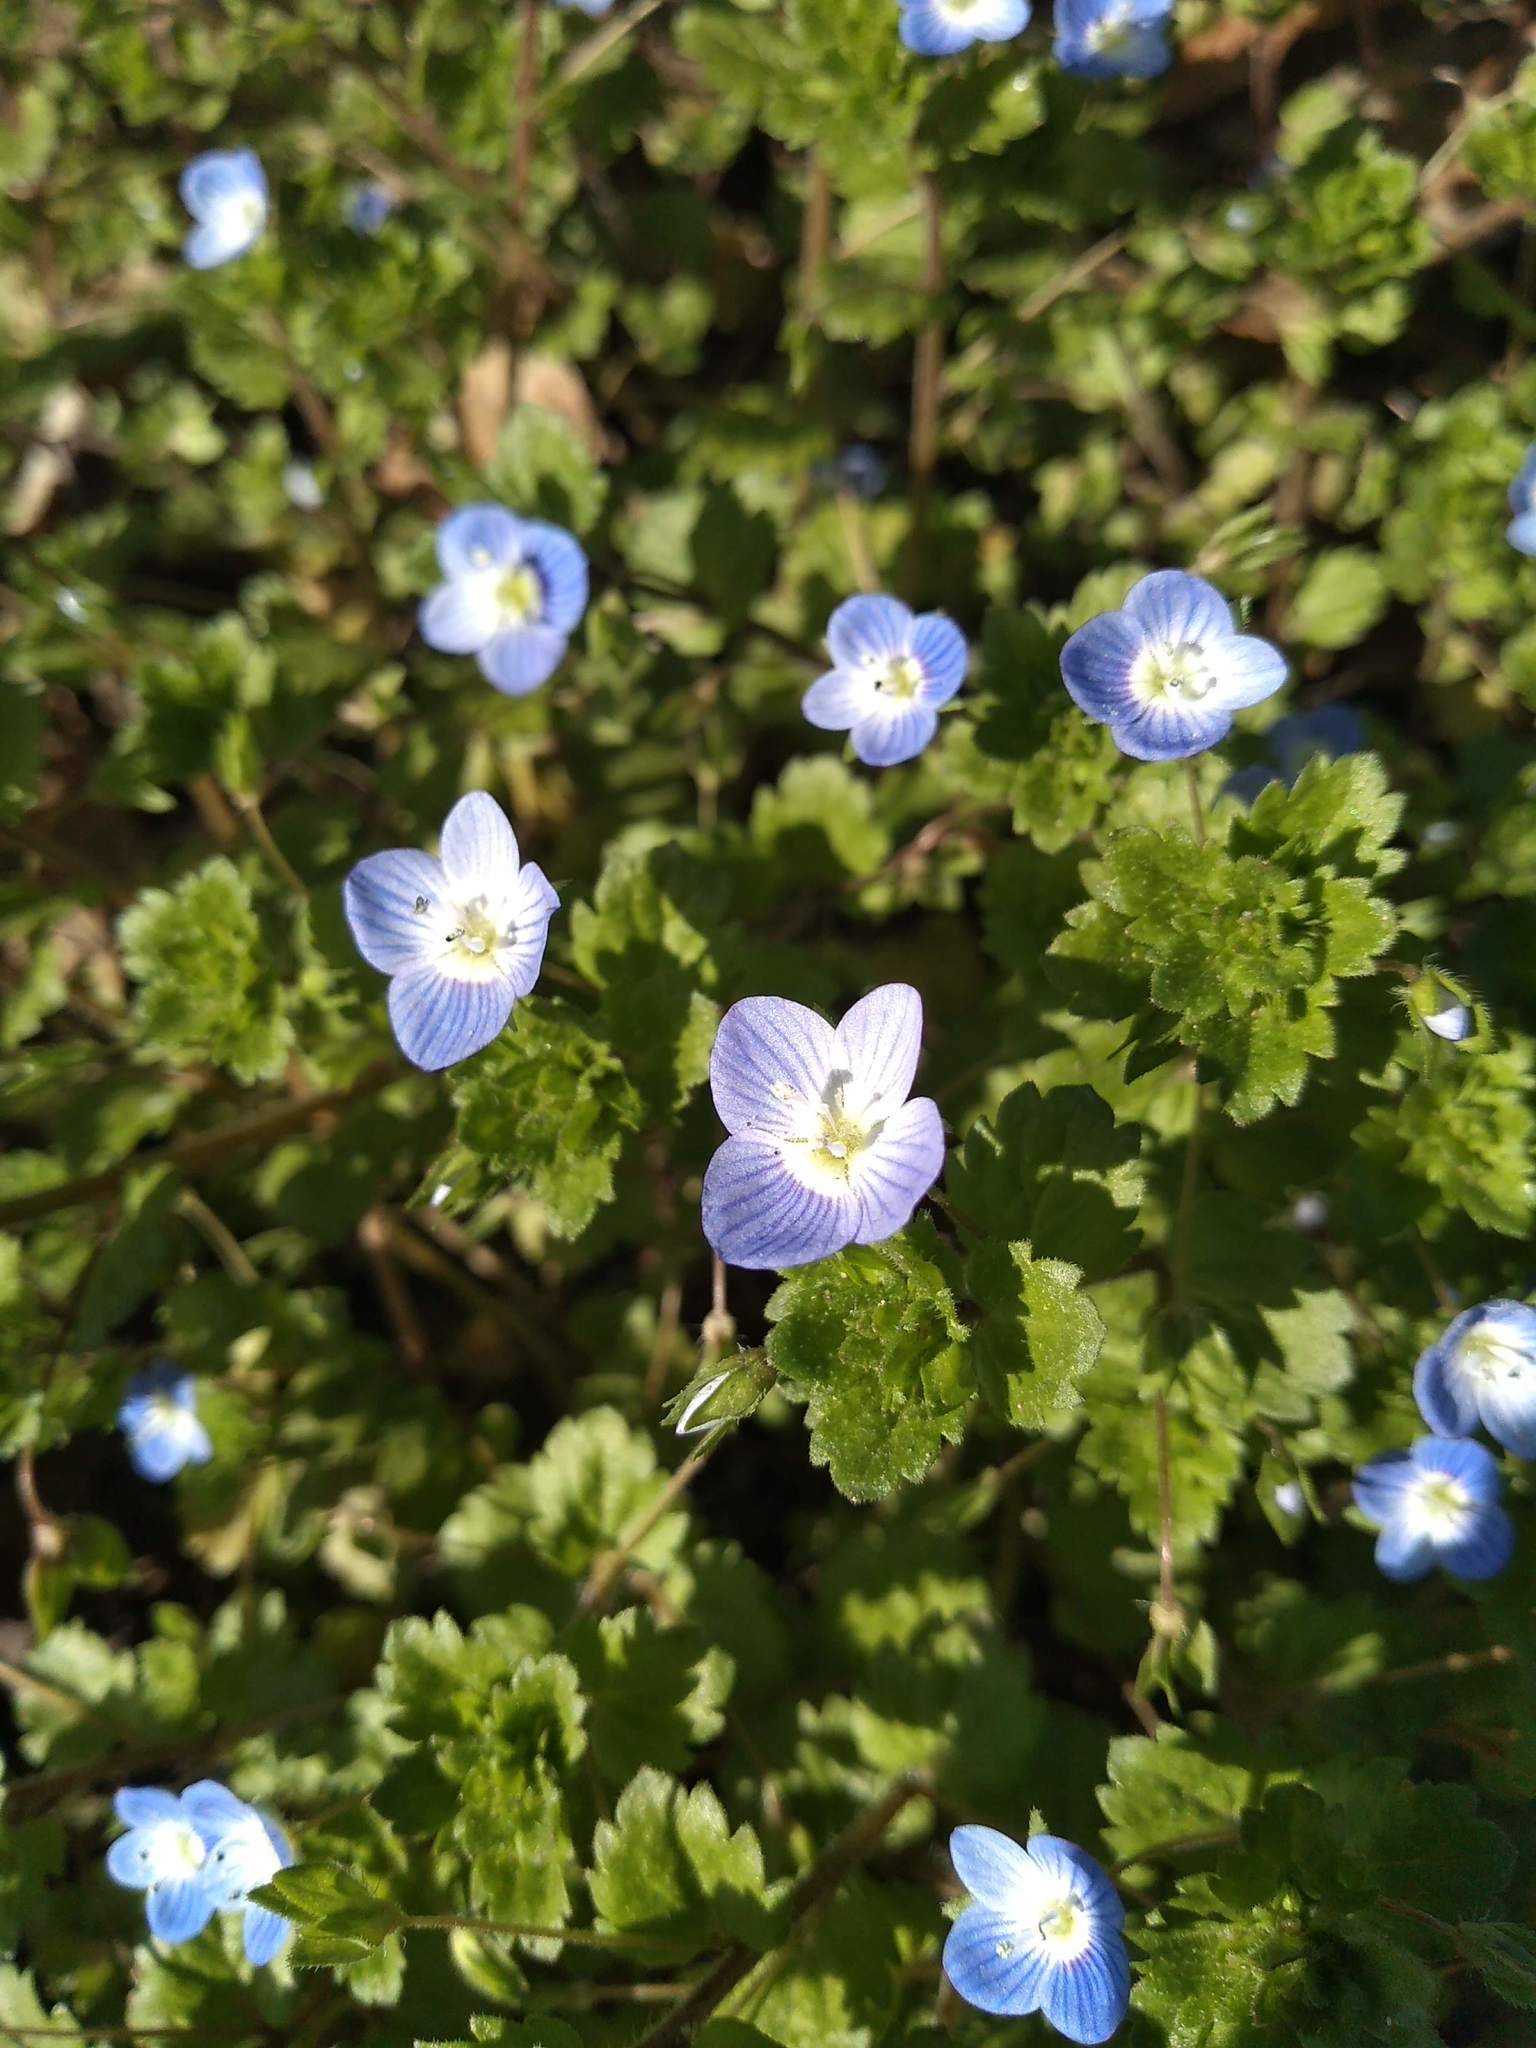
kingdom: Plantae
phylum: Tracheophyta
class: Magnoliopsida
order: Lamiales
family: Plantaginaceae
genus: Veronica
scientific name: Veronica persica
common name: Common field-speedwell
